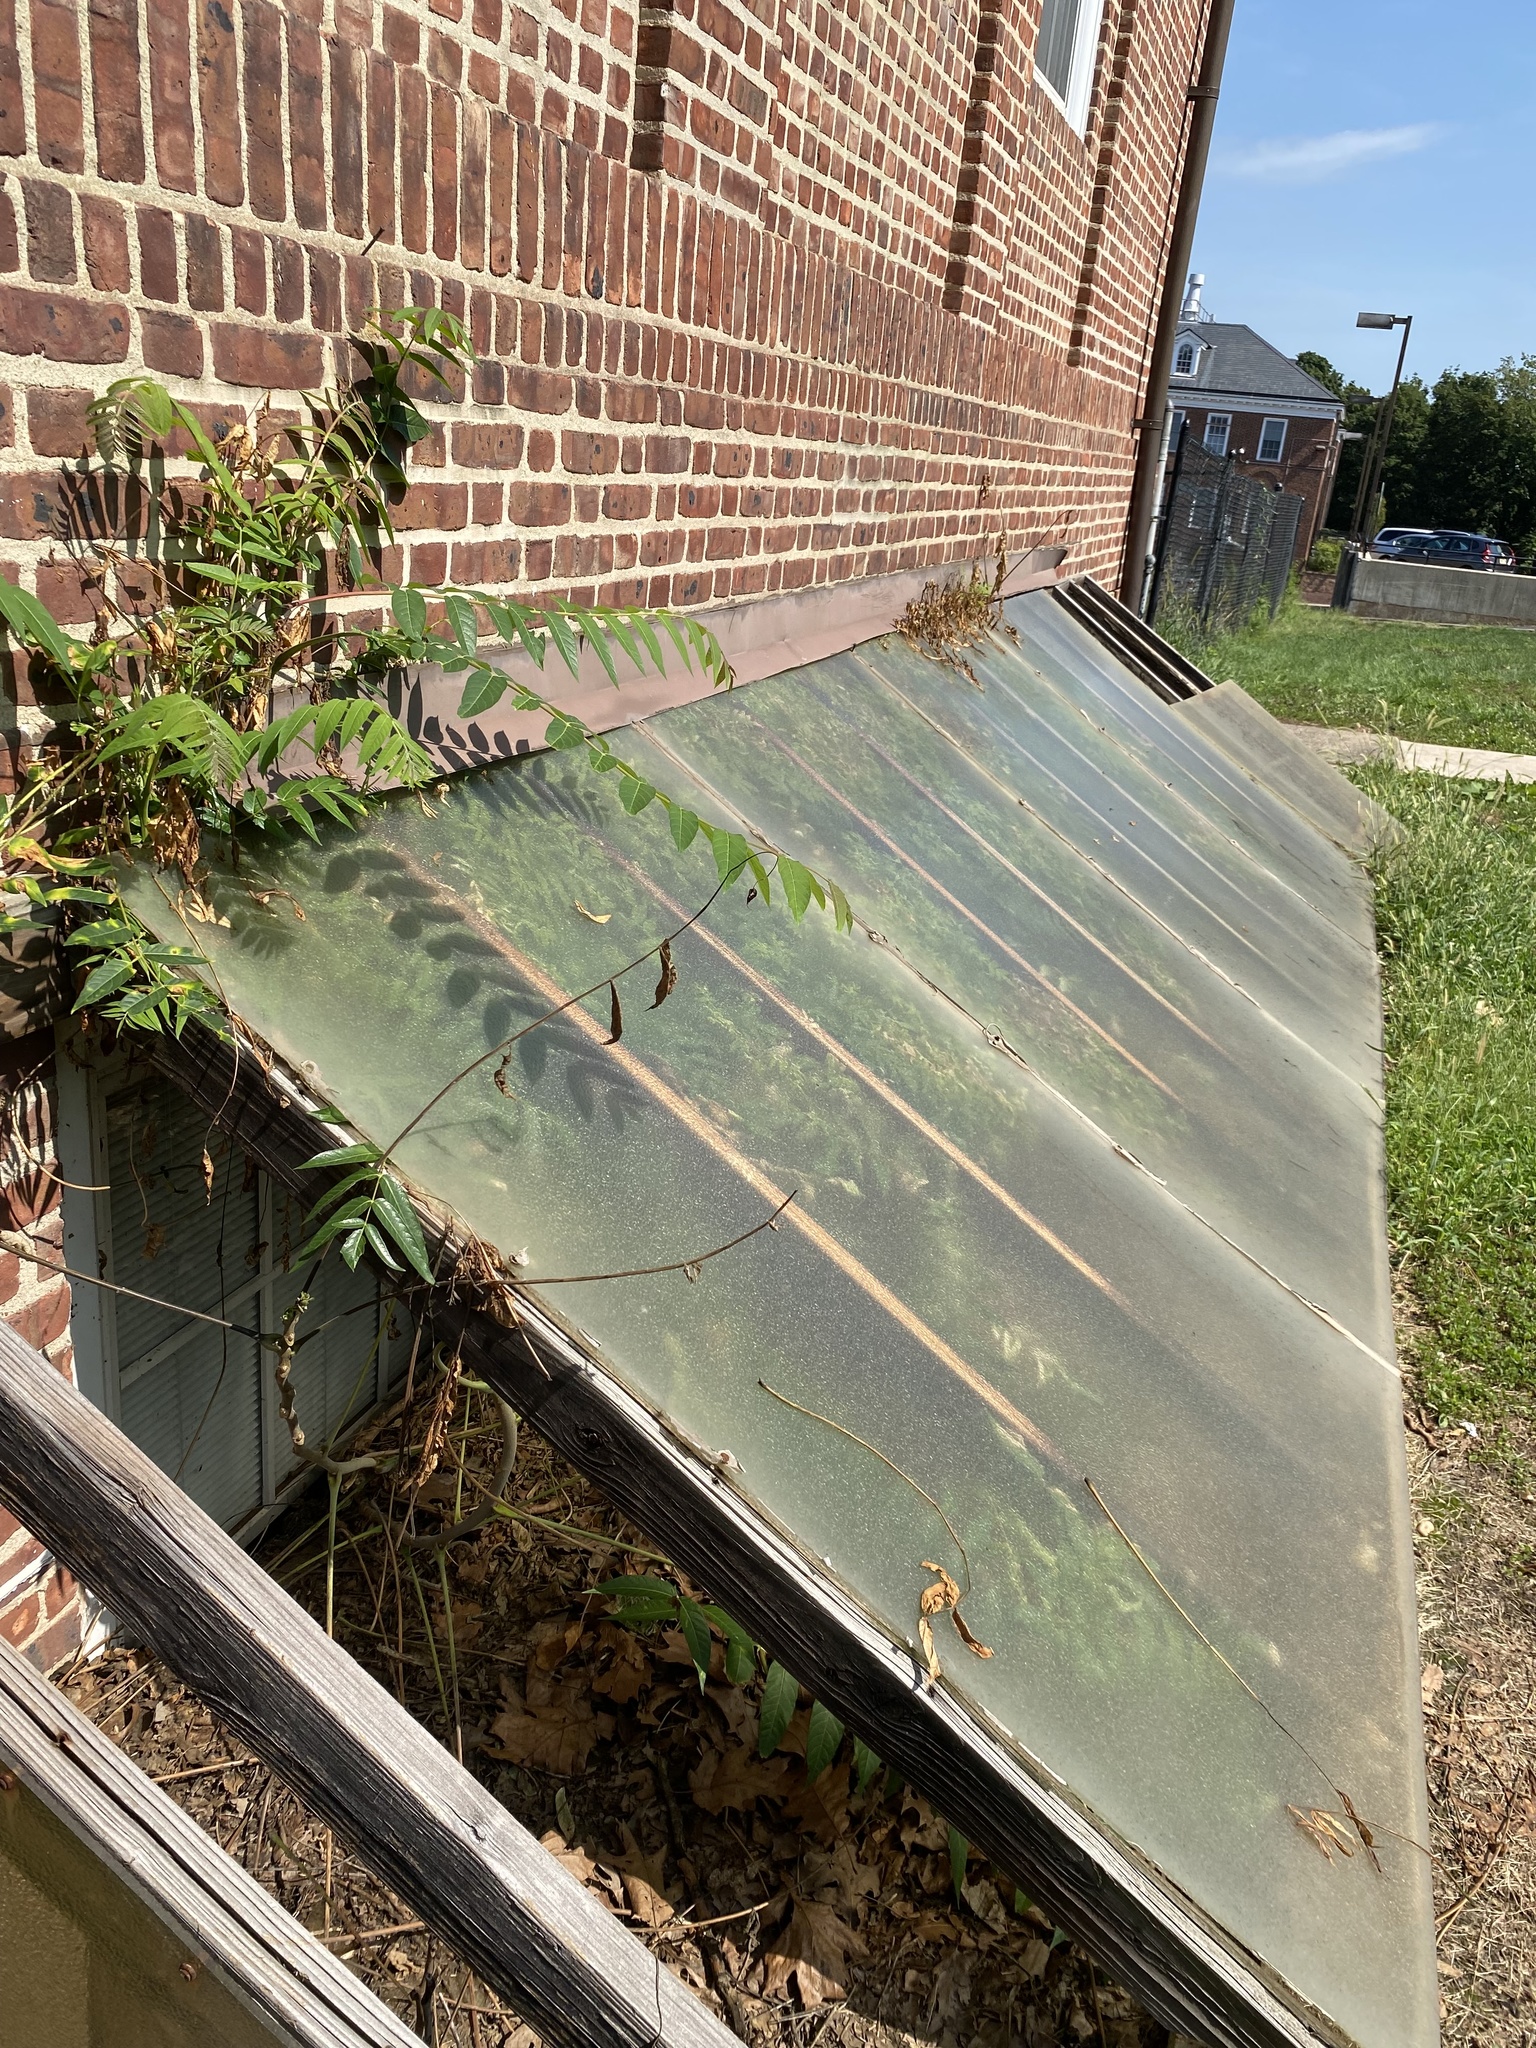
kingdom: Plantae
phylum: Tracheophyta
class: Magnoliopsida
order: Sapindales
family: Simaroubaceae
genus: Ailanthus
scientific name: Ailanthus altissima
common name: Tree-of-heaven
